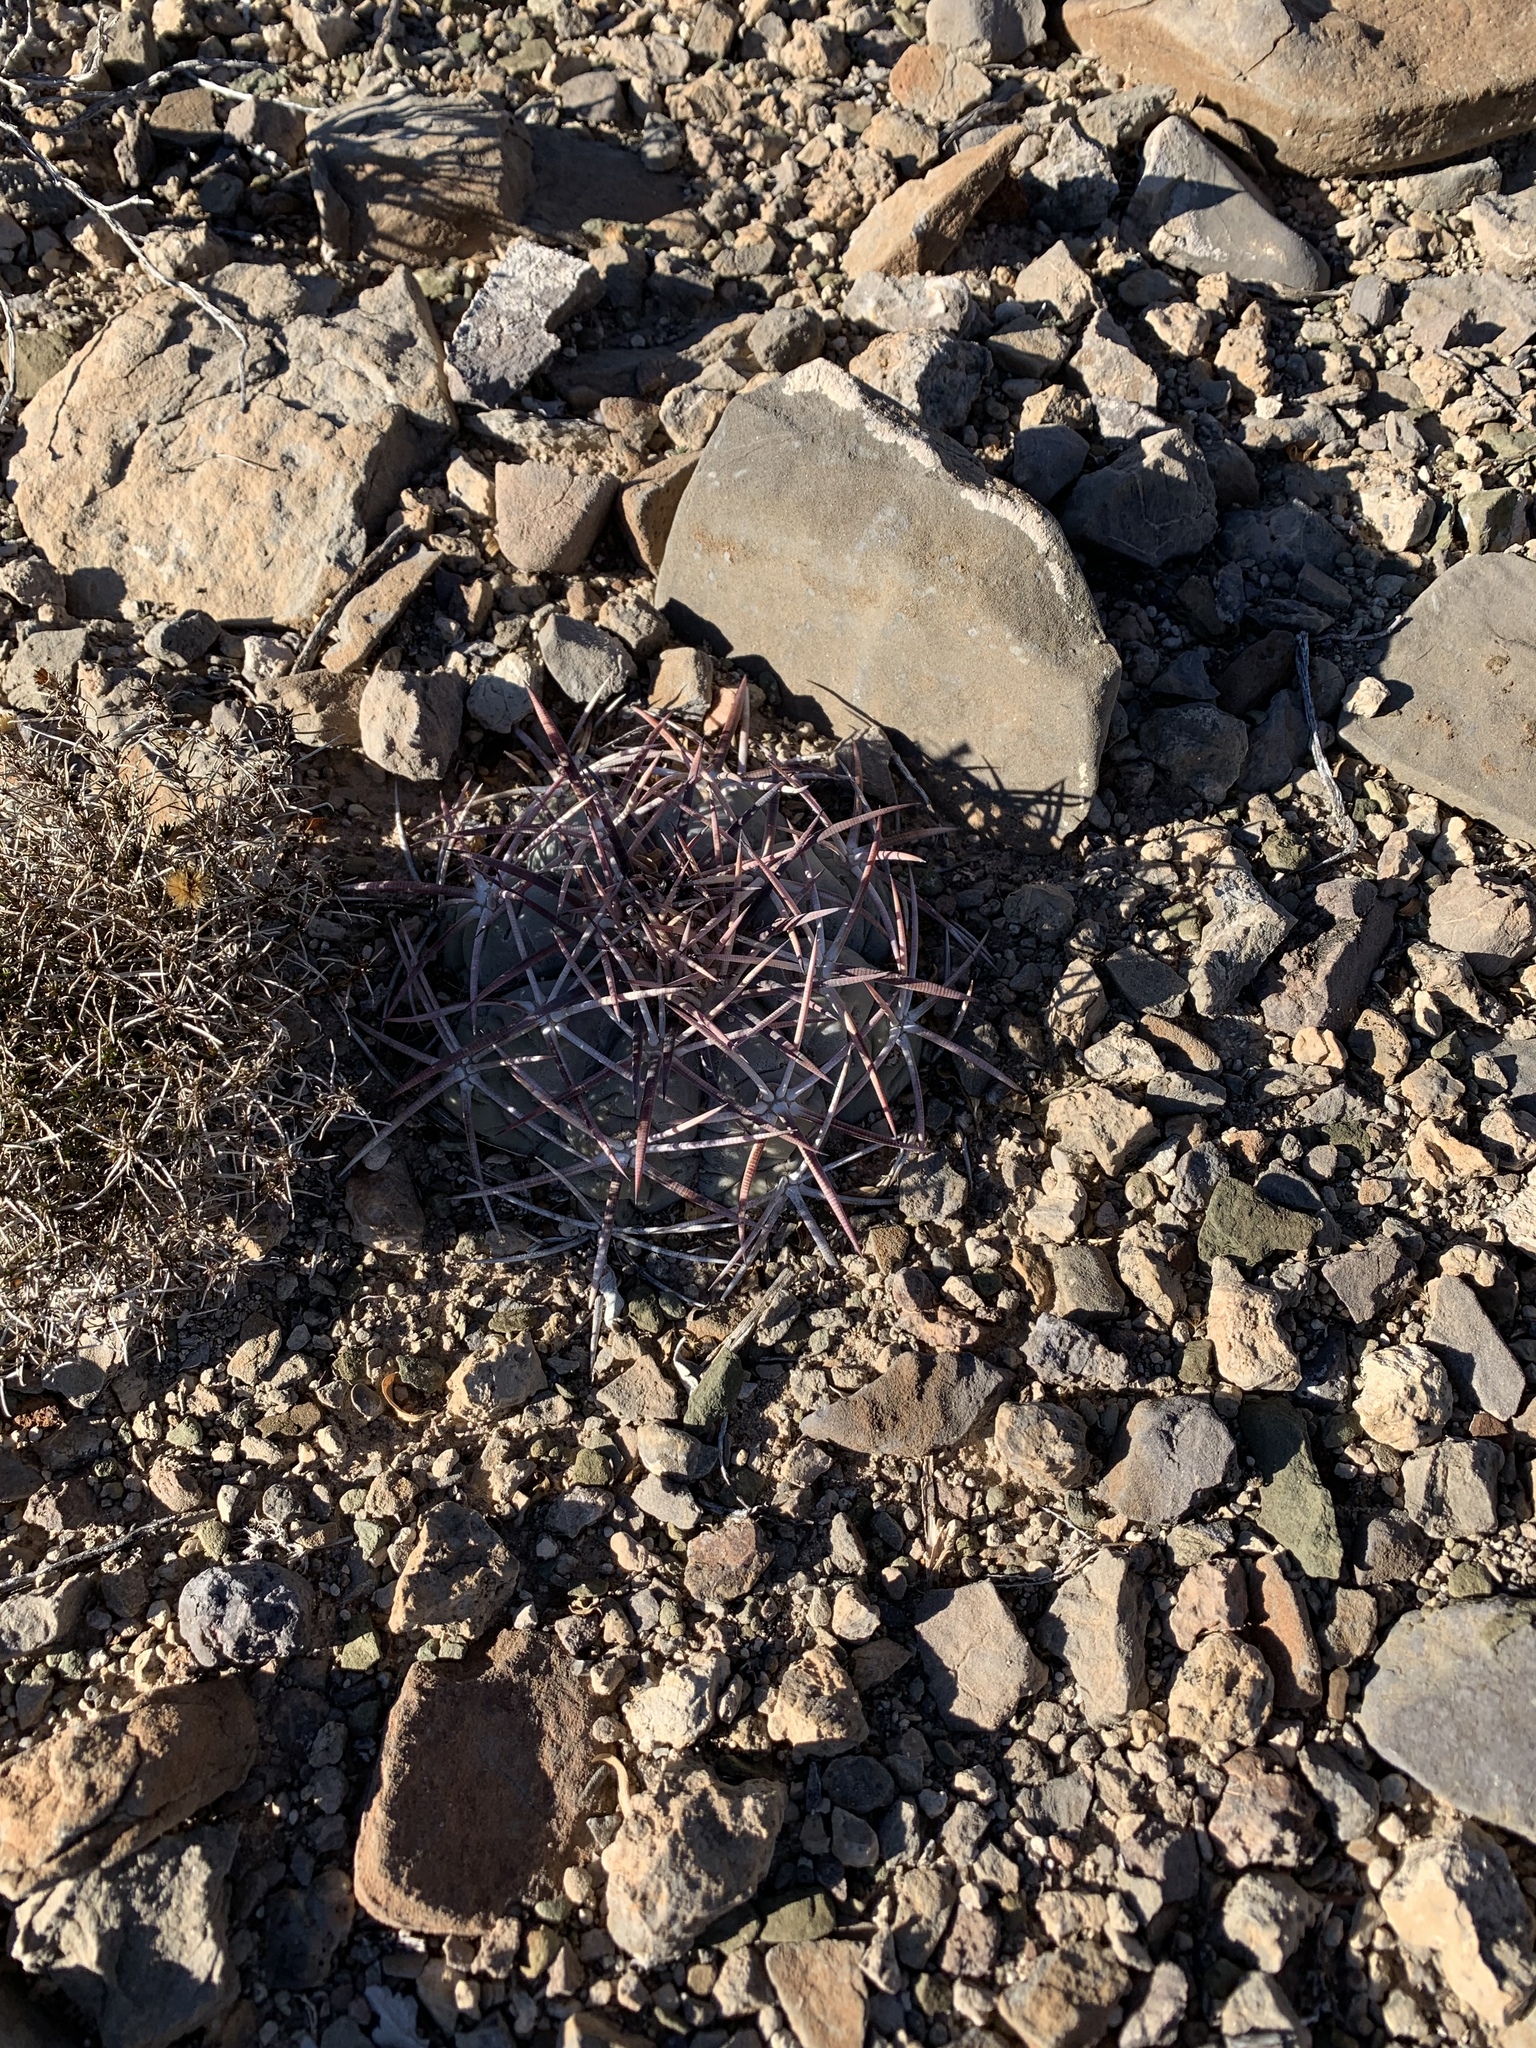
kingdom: Plantae
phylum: Tracheophyta
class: Magnoliopsida
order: Caryophyllales
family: Cactaceae
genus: Echinocactus
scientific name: Echinocactus horizonthalonius
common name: Devilshead
